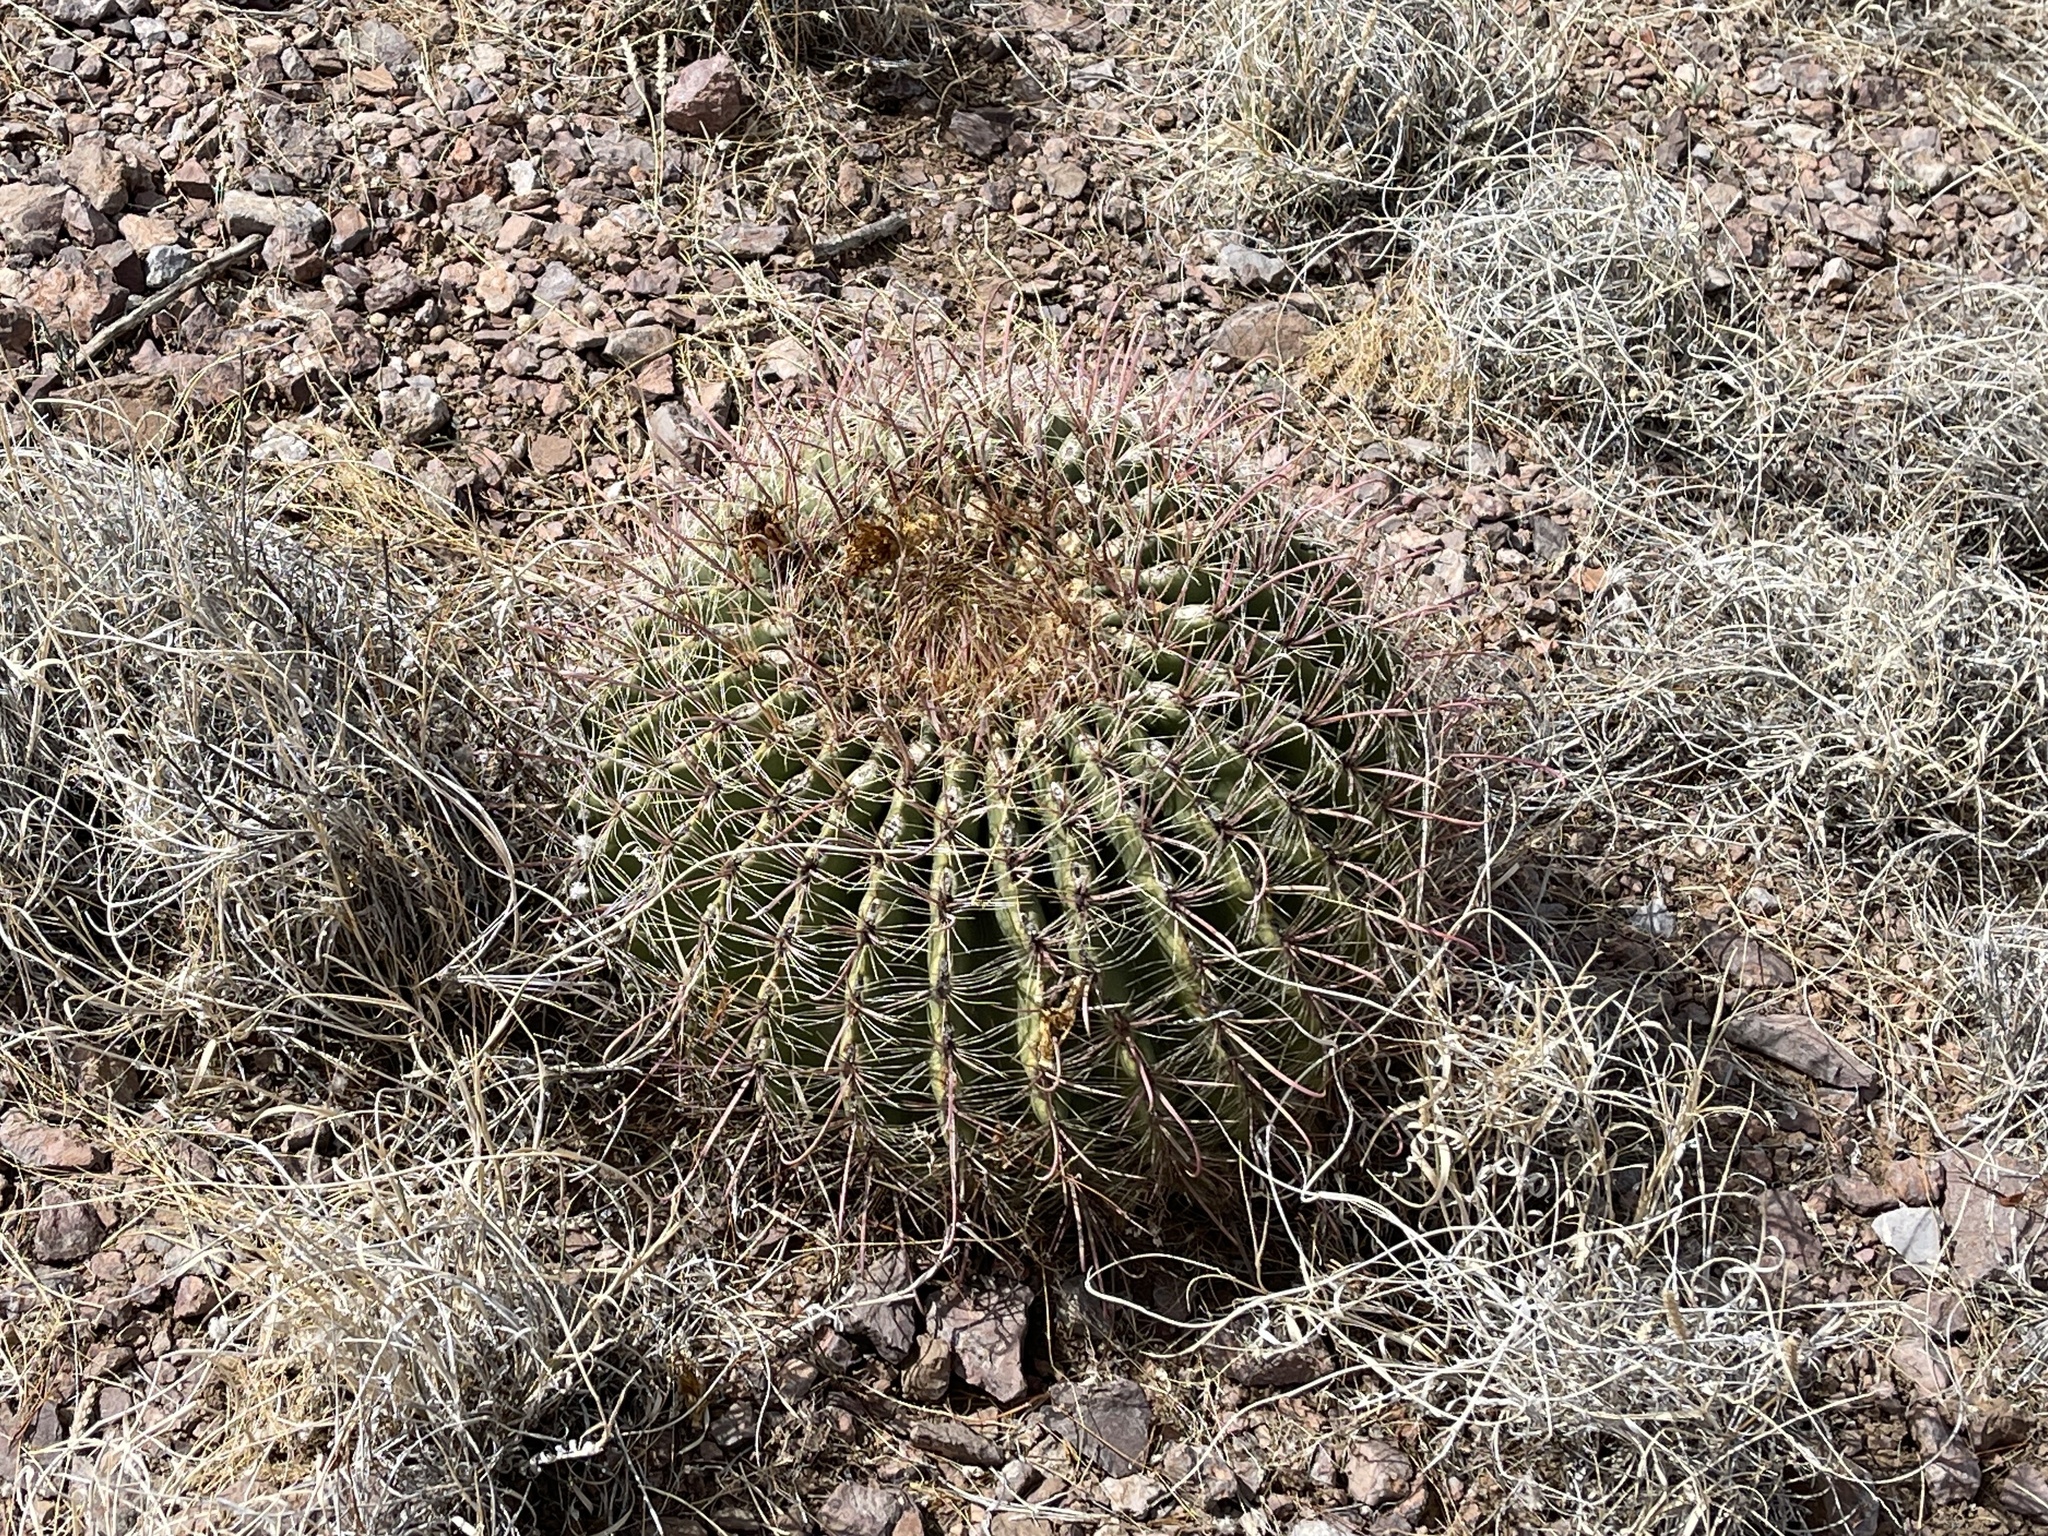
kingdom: Plantae
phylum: Tracheophyta
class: Magnoliopsida
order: Caryophyllales
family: Cactaceae
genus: Ferocactus
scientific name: Ferocactus wislizeni
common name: Candy barrel cactus
